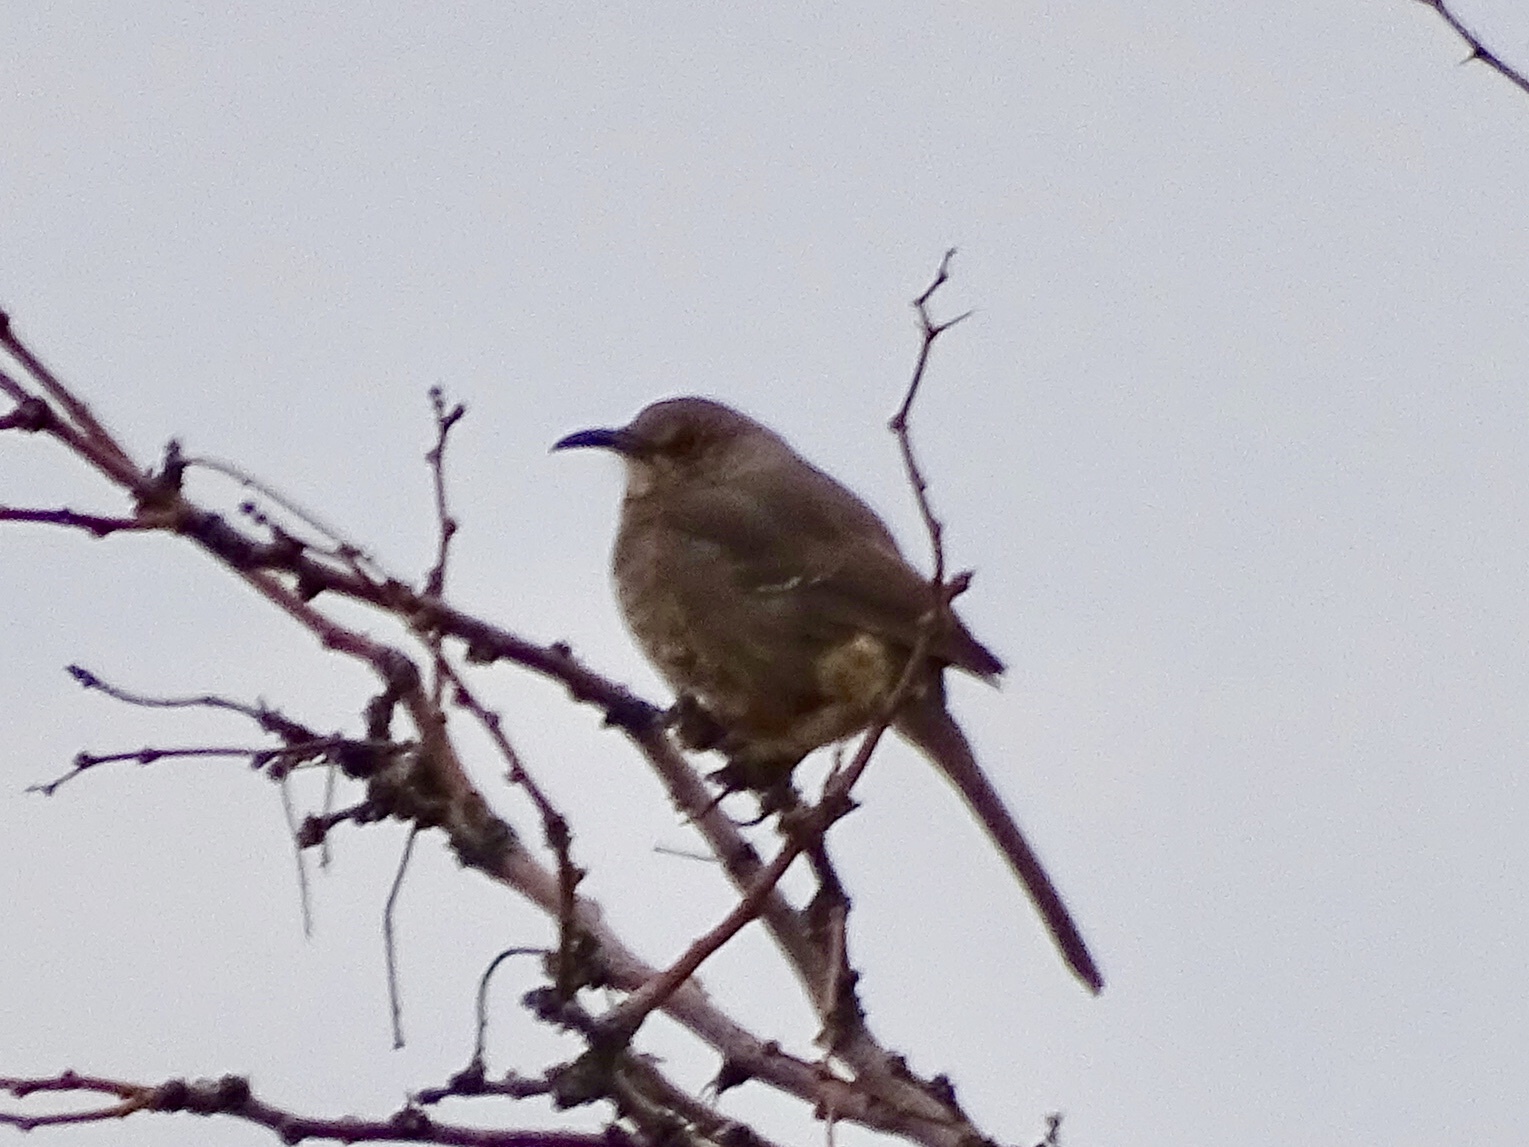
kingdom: Animalia
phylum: Chordata
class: Aves
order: Passeriformes
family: Mimidae
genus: Toxostoma
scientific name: Toxostoma curvirostre
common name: Curve-billed thrasher
